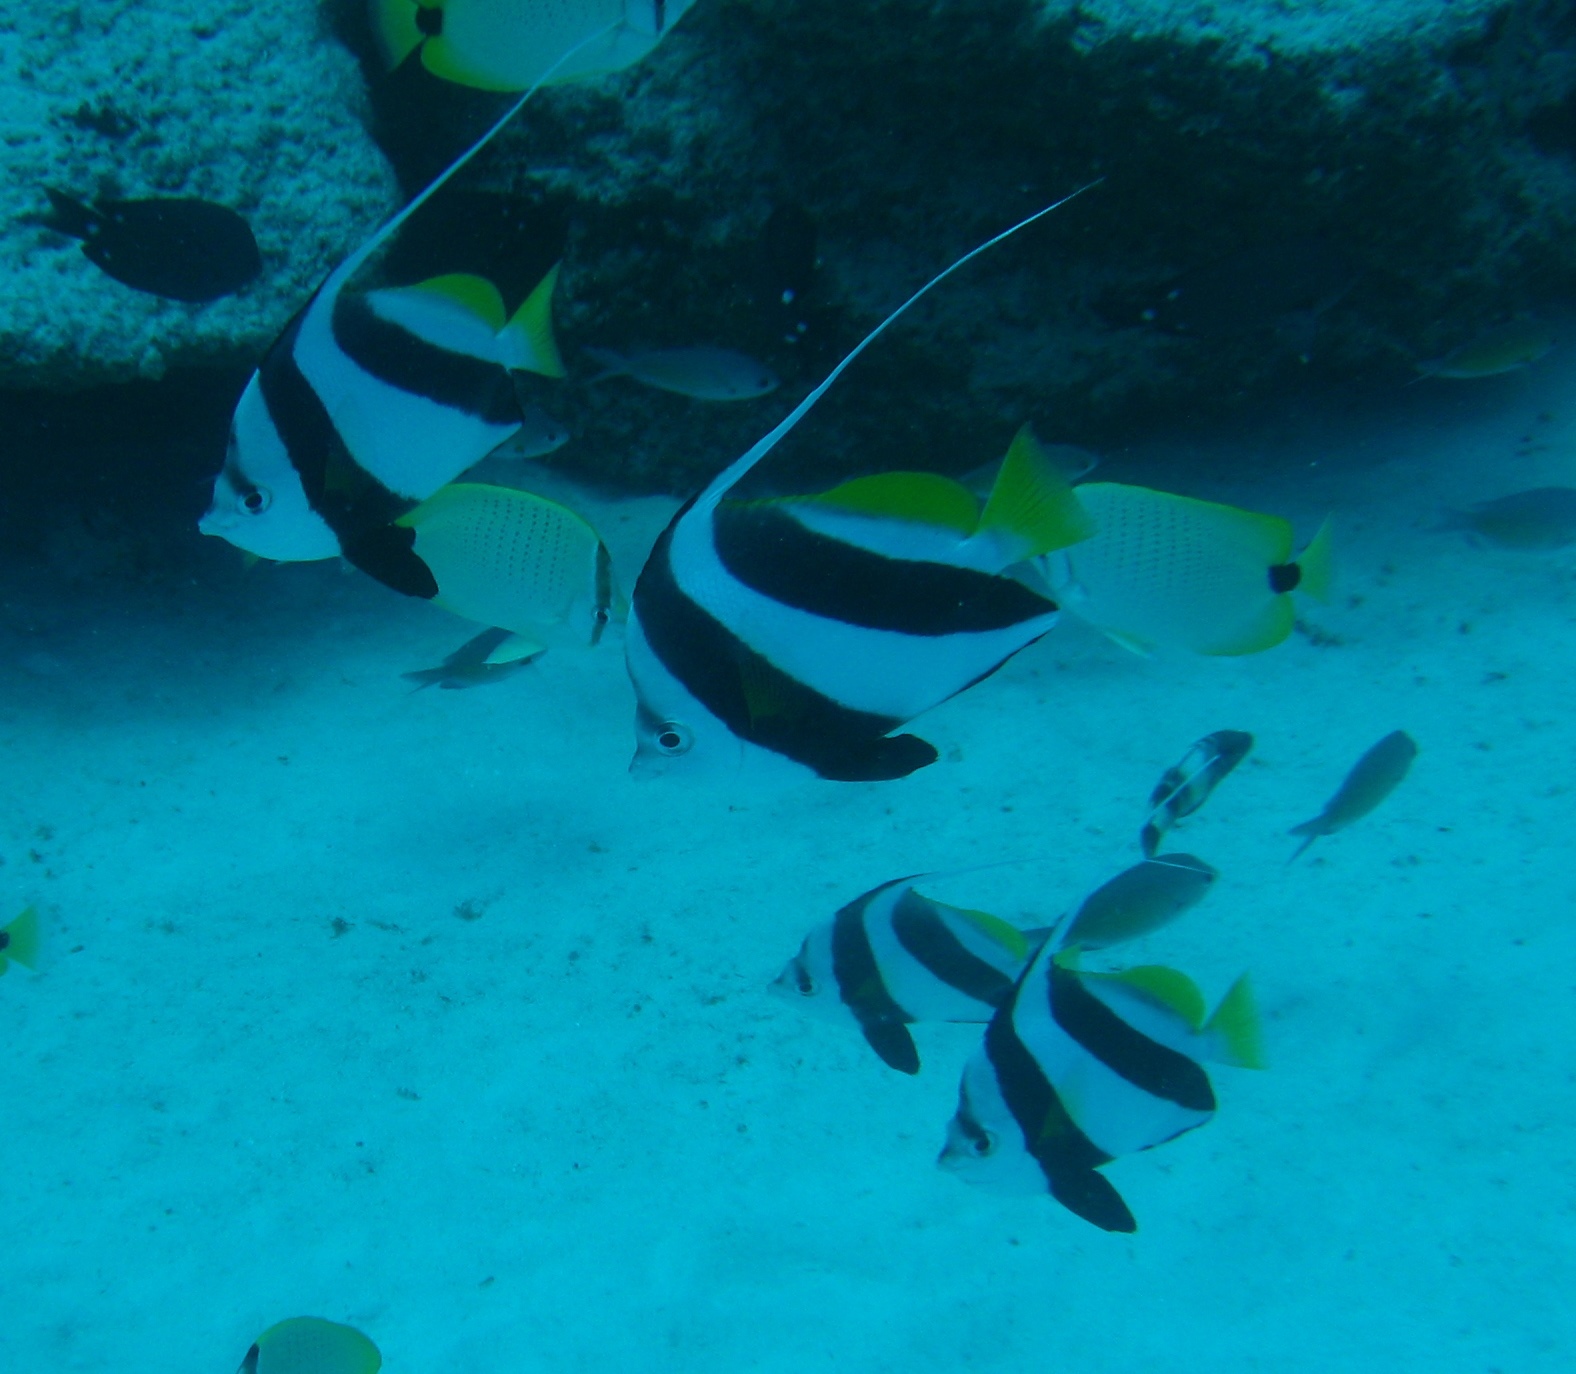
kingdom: Animalia
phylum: Chordata
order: Perciformes
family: Chaetodontidae
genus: Heniochus
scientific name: Heniochus diphreutes
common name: Pennantfish
